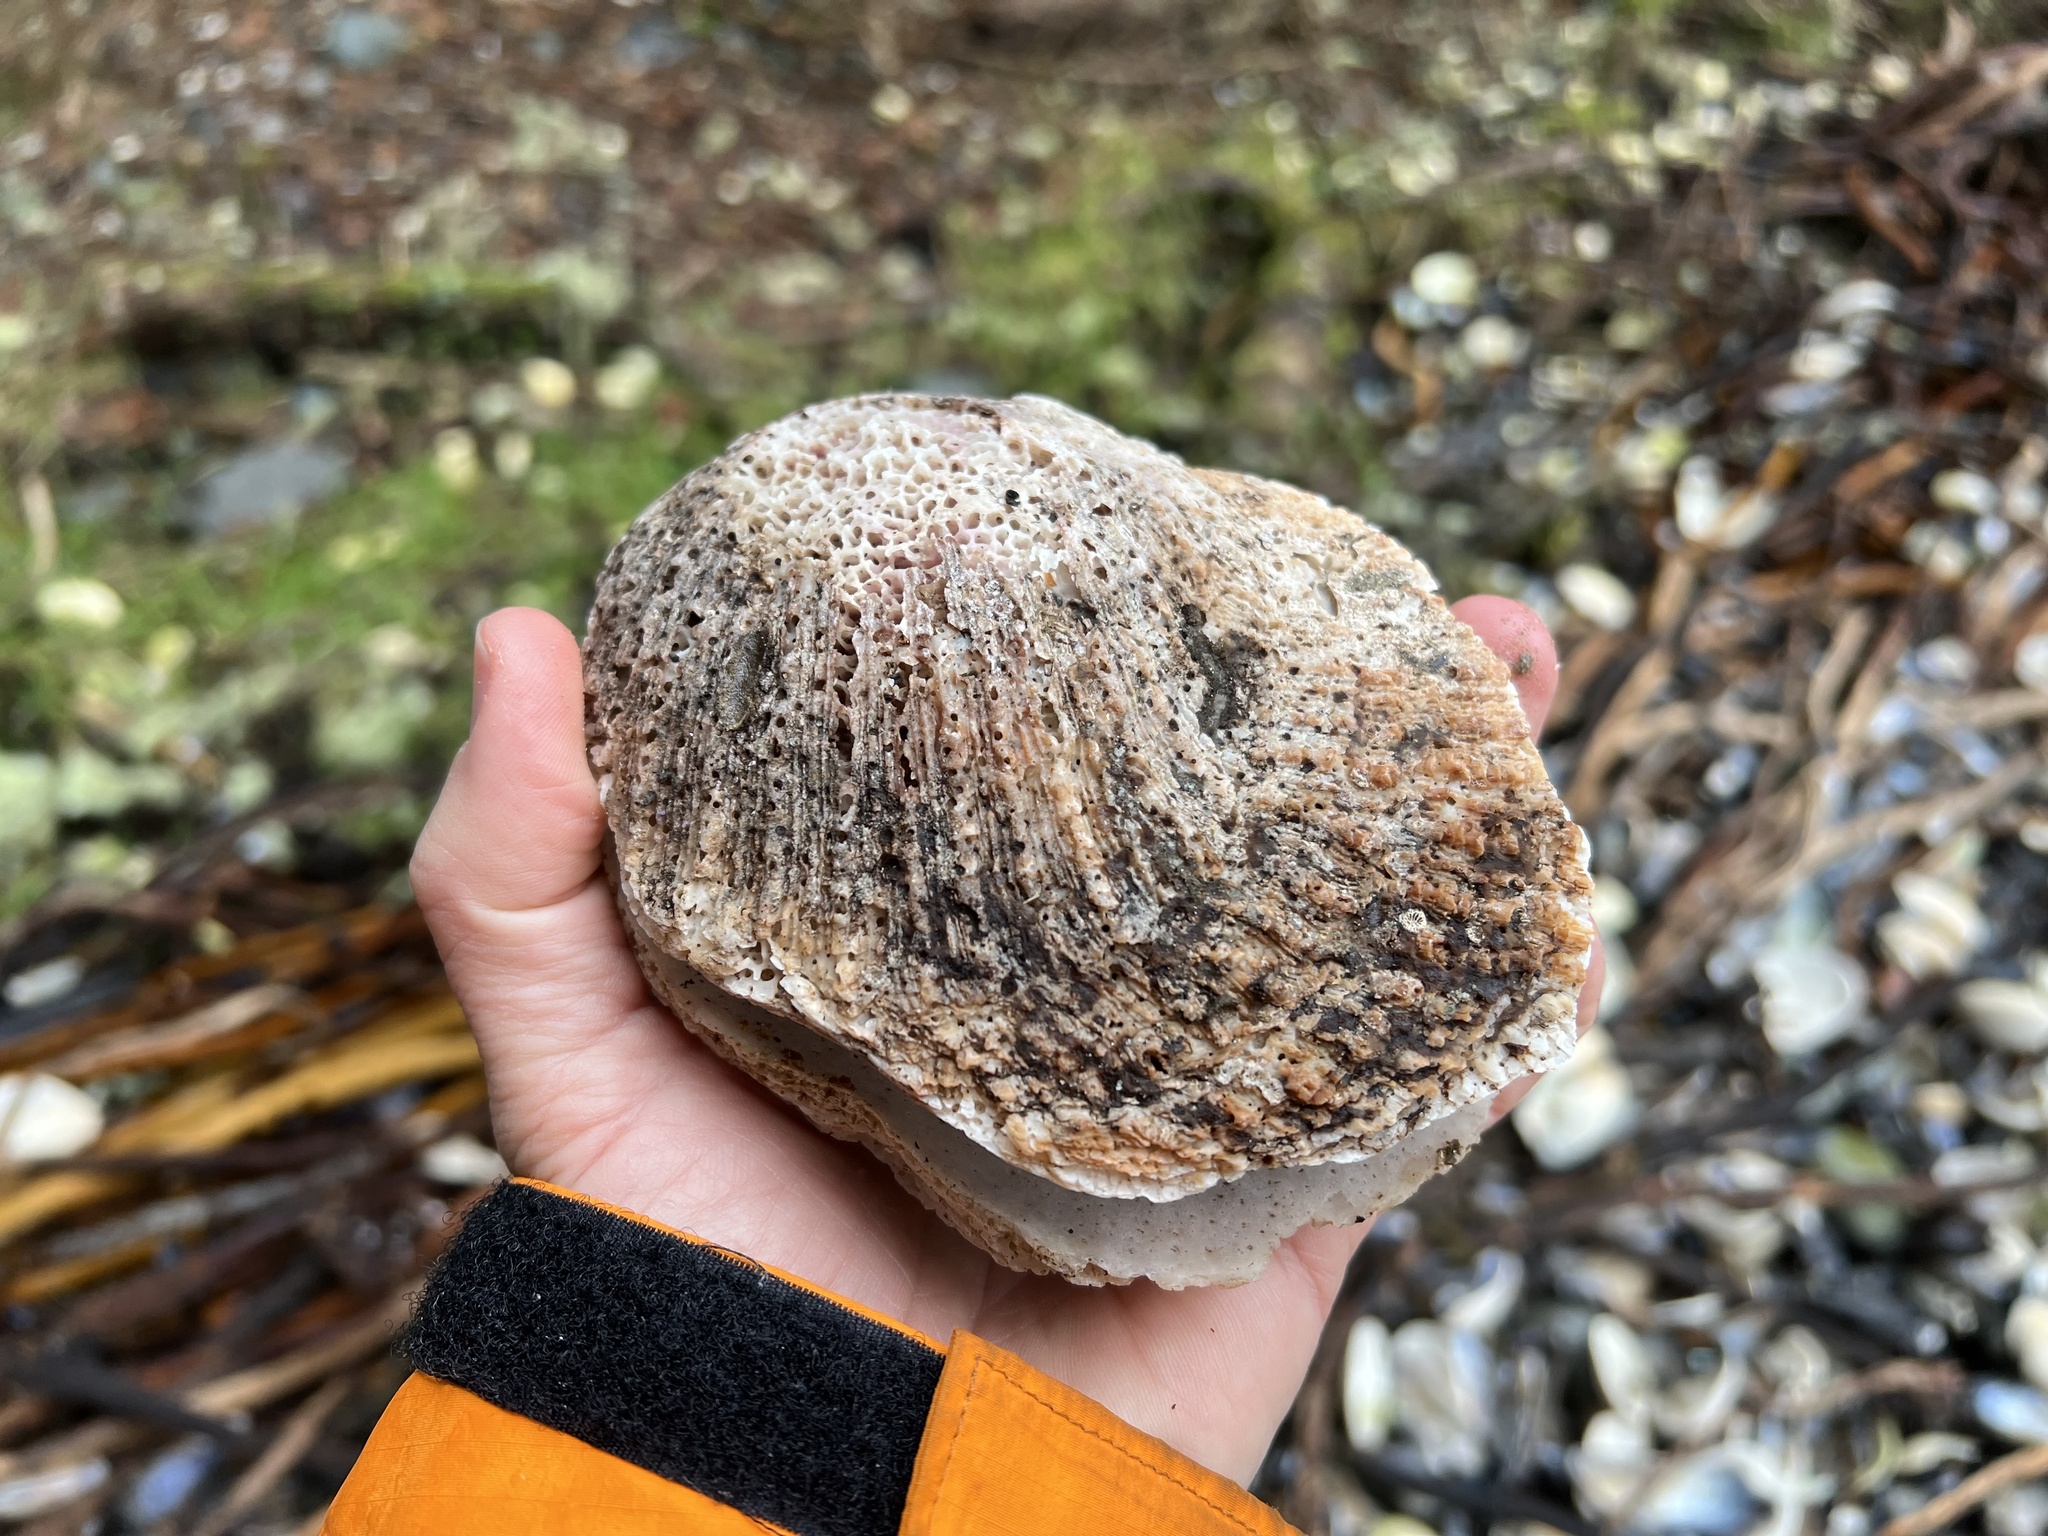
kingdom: Animalia
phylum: Mollusca
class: Bivalvia
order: Pectinida
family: Pectinidae
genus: Crassadoma
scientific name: Crassadoma gigantea
